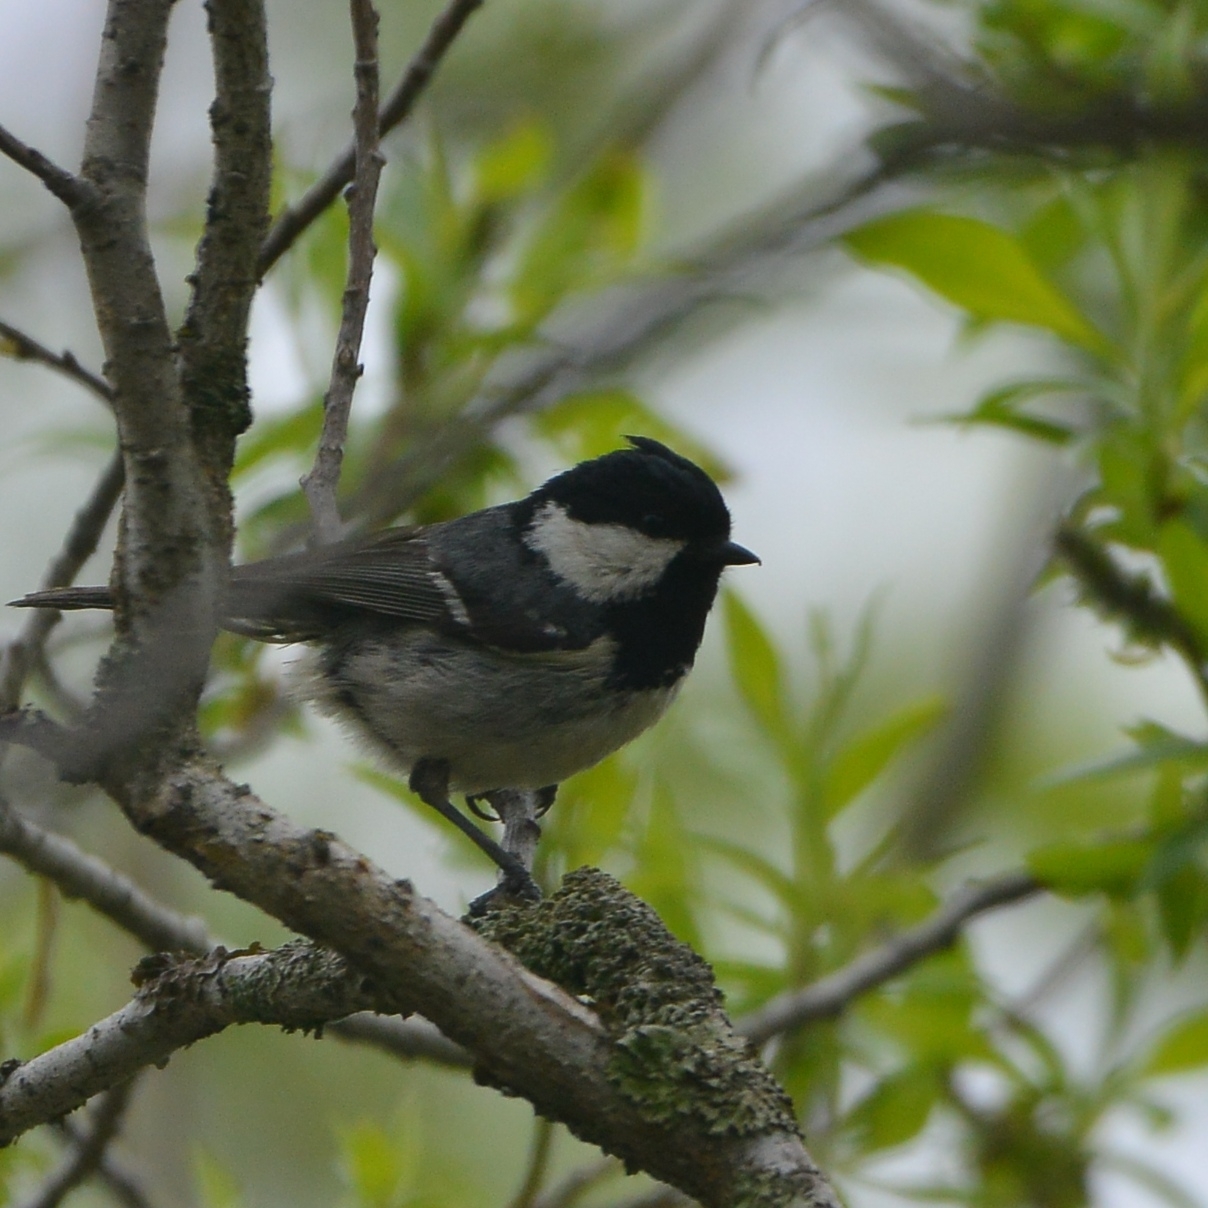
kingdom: Animalia
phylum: Chordata
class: Aves
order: Passeriformes
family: Paridae
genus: Periparus
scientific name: Periparus ater
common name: Coal tit
